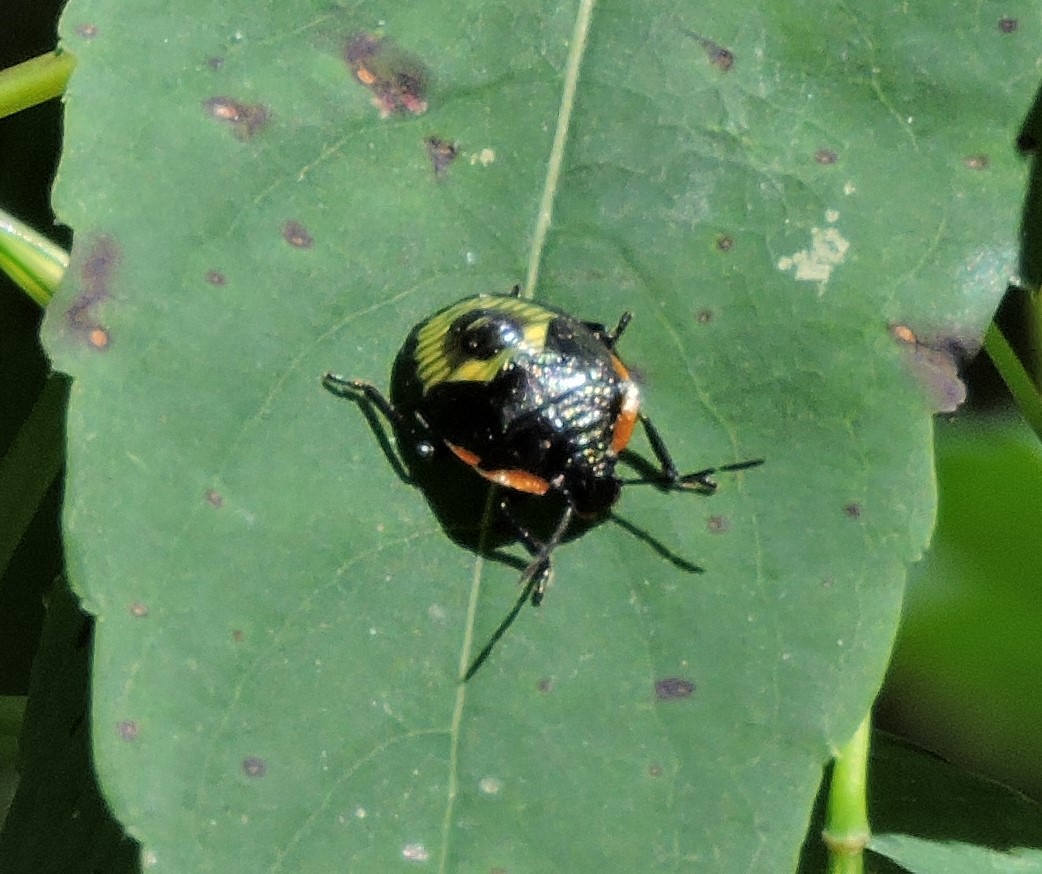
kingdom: Animalia
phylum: Arthropoda
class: Insecta
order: Hemiptera
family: Pentatomidae
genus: Chinavia
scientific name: Chinavia hilaris
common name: Green stink bug
